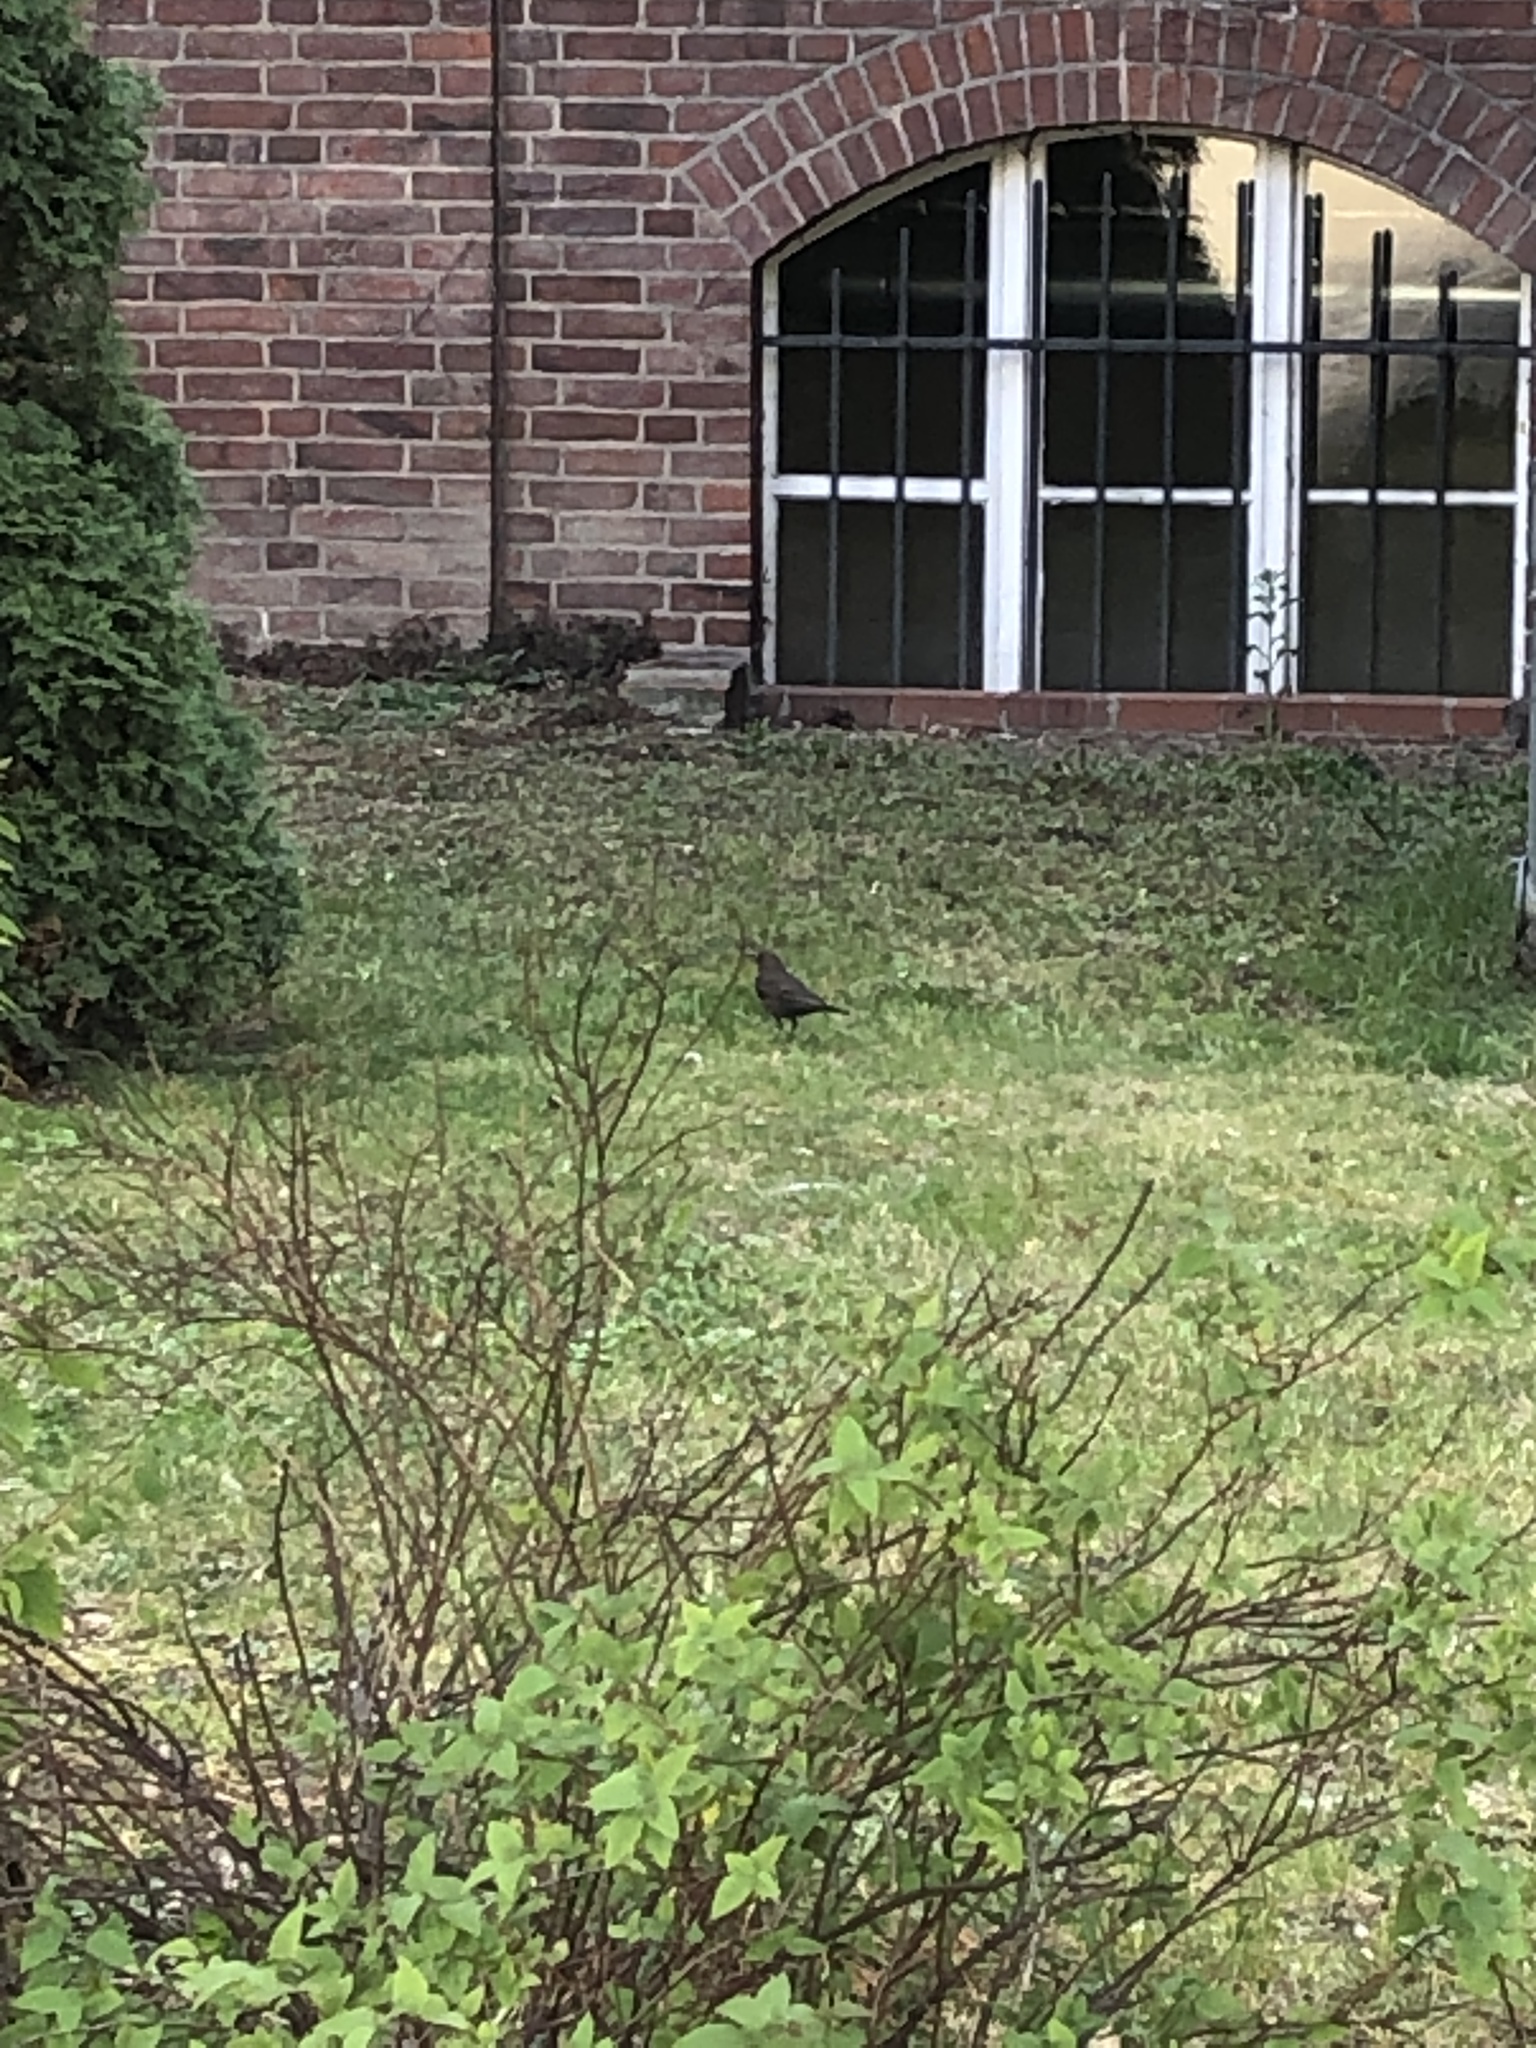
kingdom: Animalia
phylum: Chordata
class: Aves
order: Passeriformes
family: Turdidae
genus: Turdus
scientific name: Turdus merula
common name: Common blackbird
